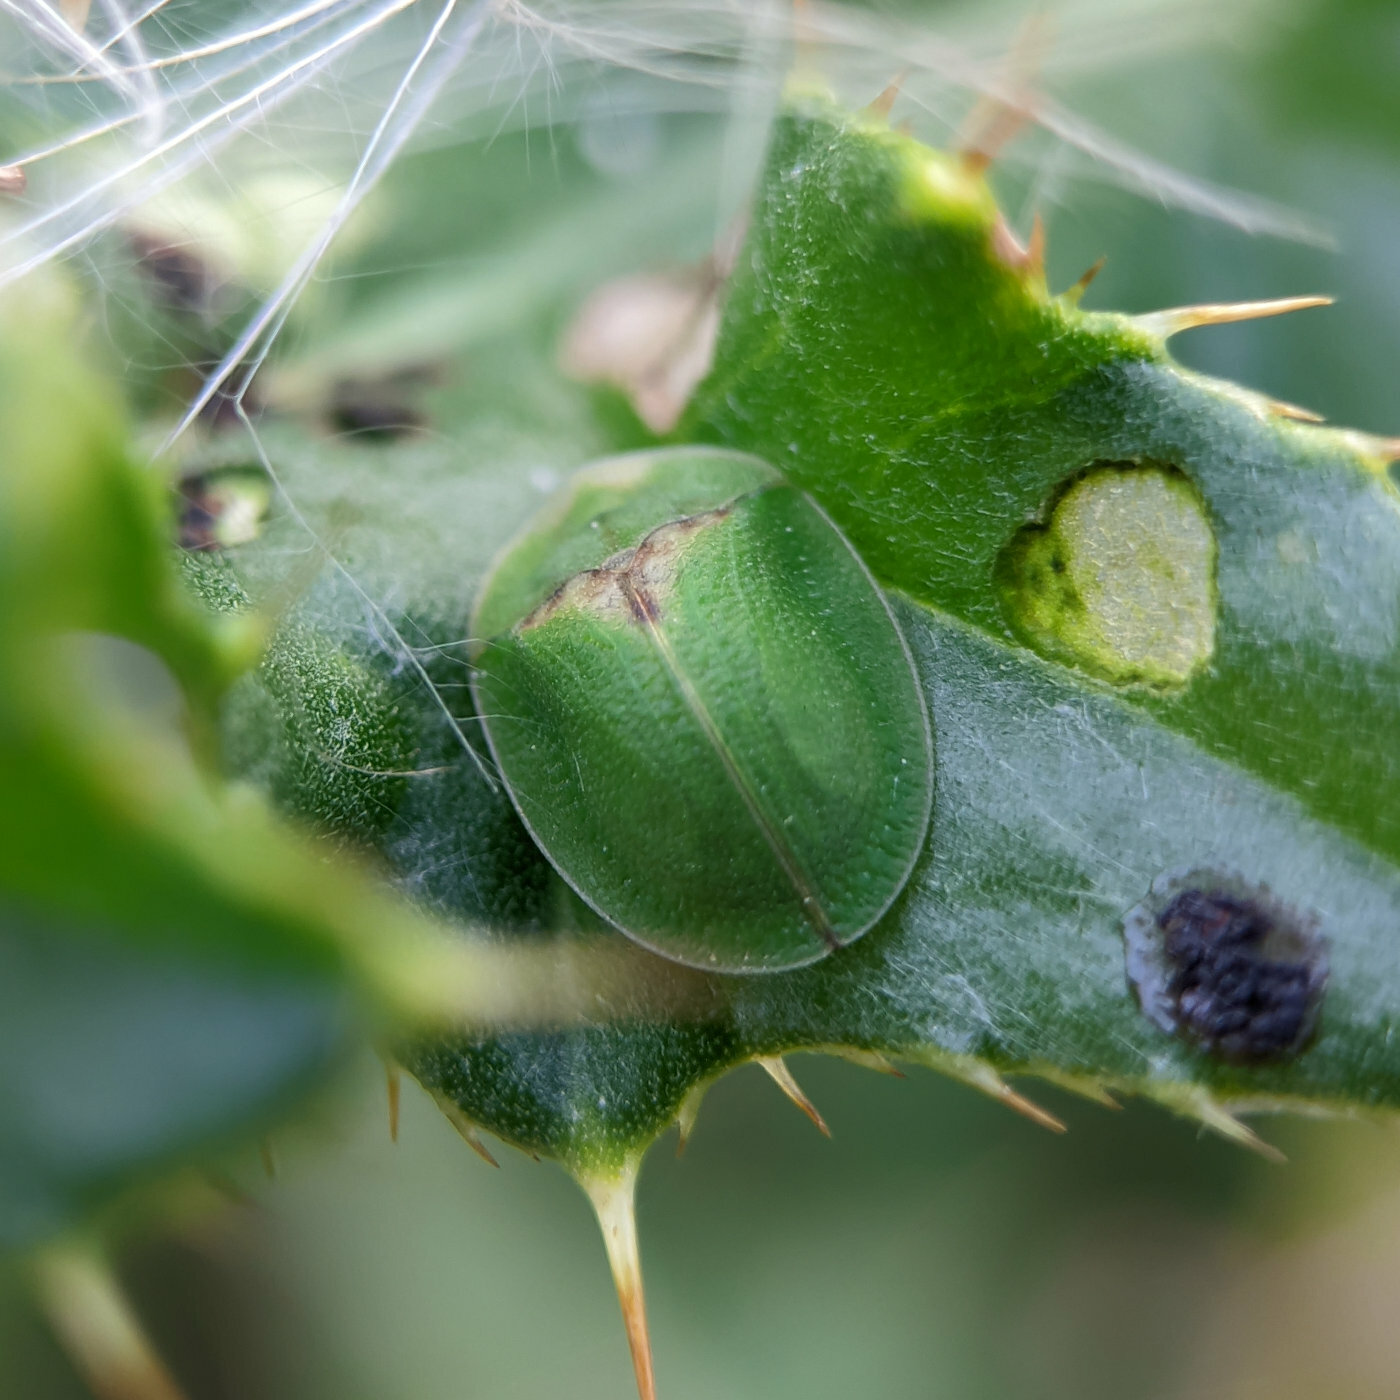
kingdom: Animalia
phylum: Arthropoda
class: Insecta
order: Coleoptera
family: Chrysomelidae
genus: Cassida
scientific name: Cassida rubiginosa
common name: Thistle tortoise beetle
